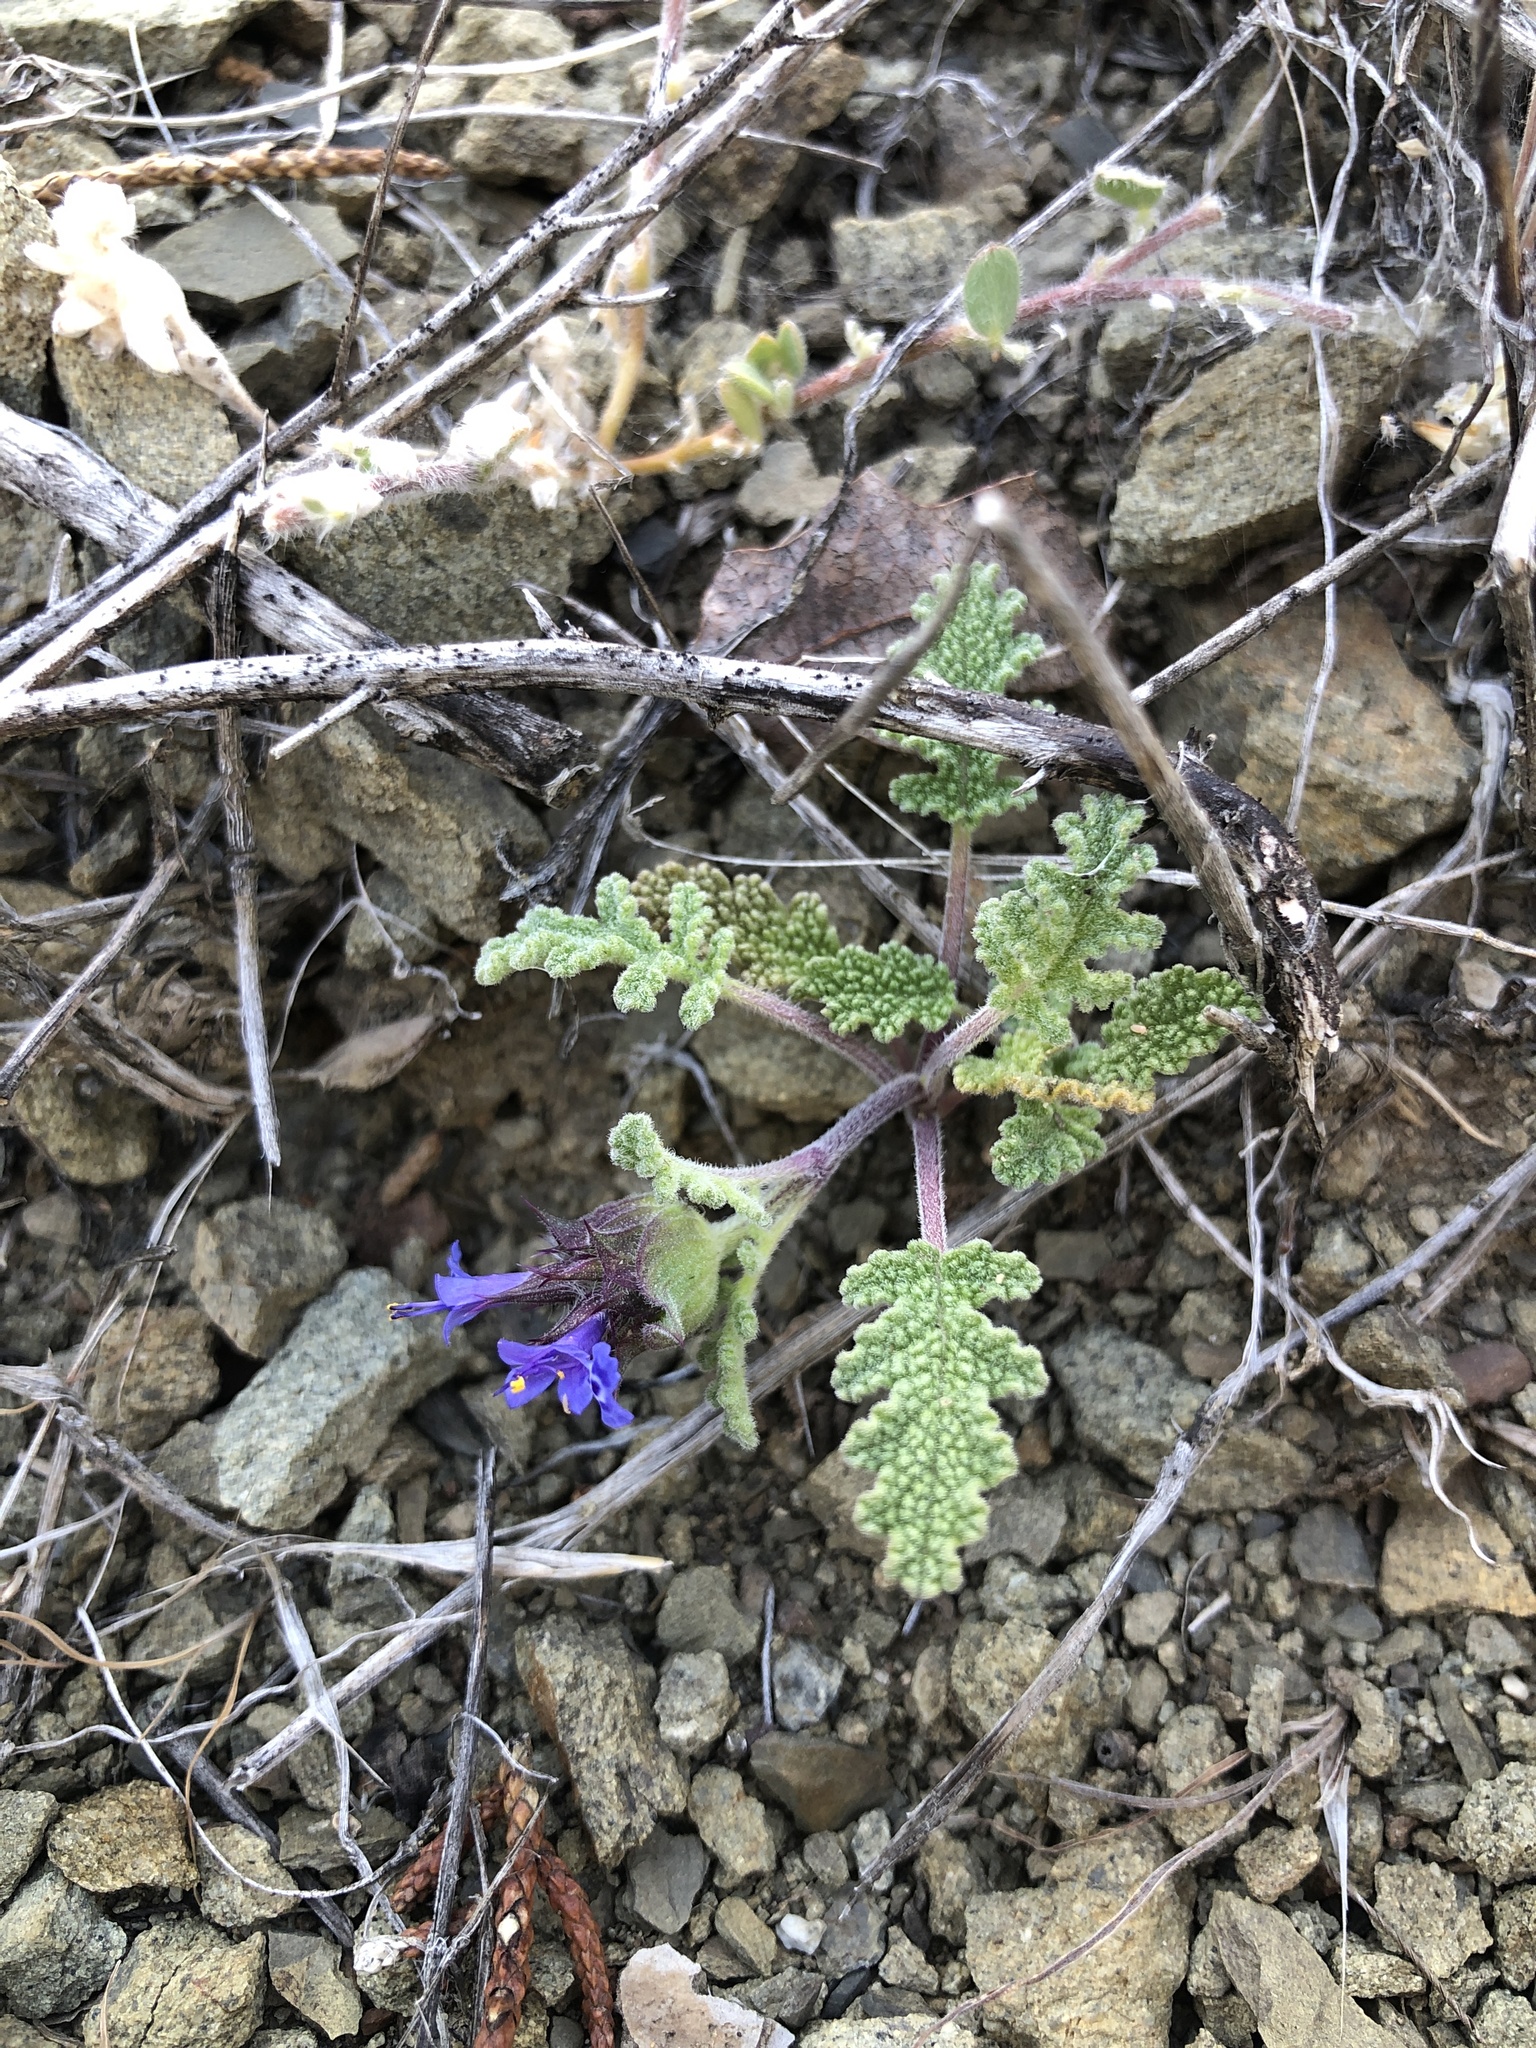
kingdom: Plantae
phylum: Tracheophyta
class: Magnoliopsida
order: Lamiales
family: Lamiaceae
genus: Salvia
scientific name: Salvia columbariae
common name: Chia
